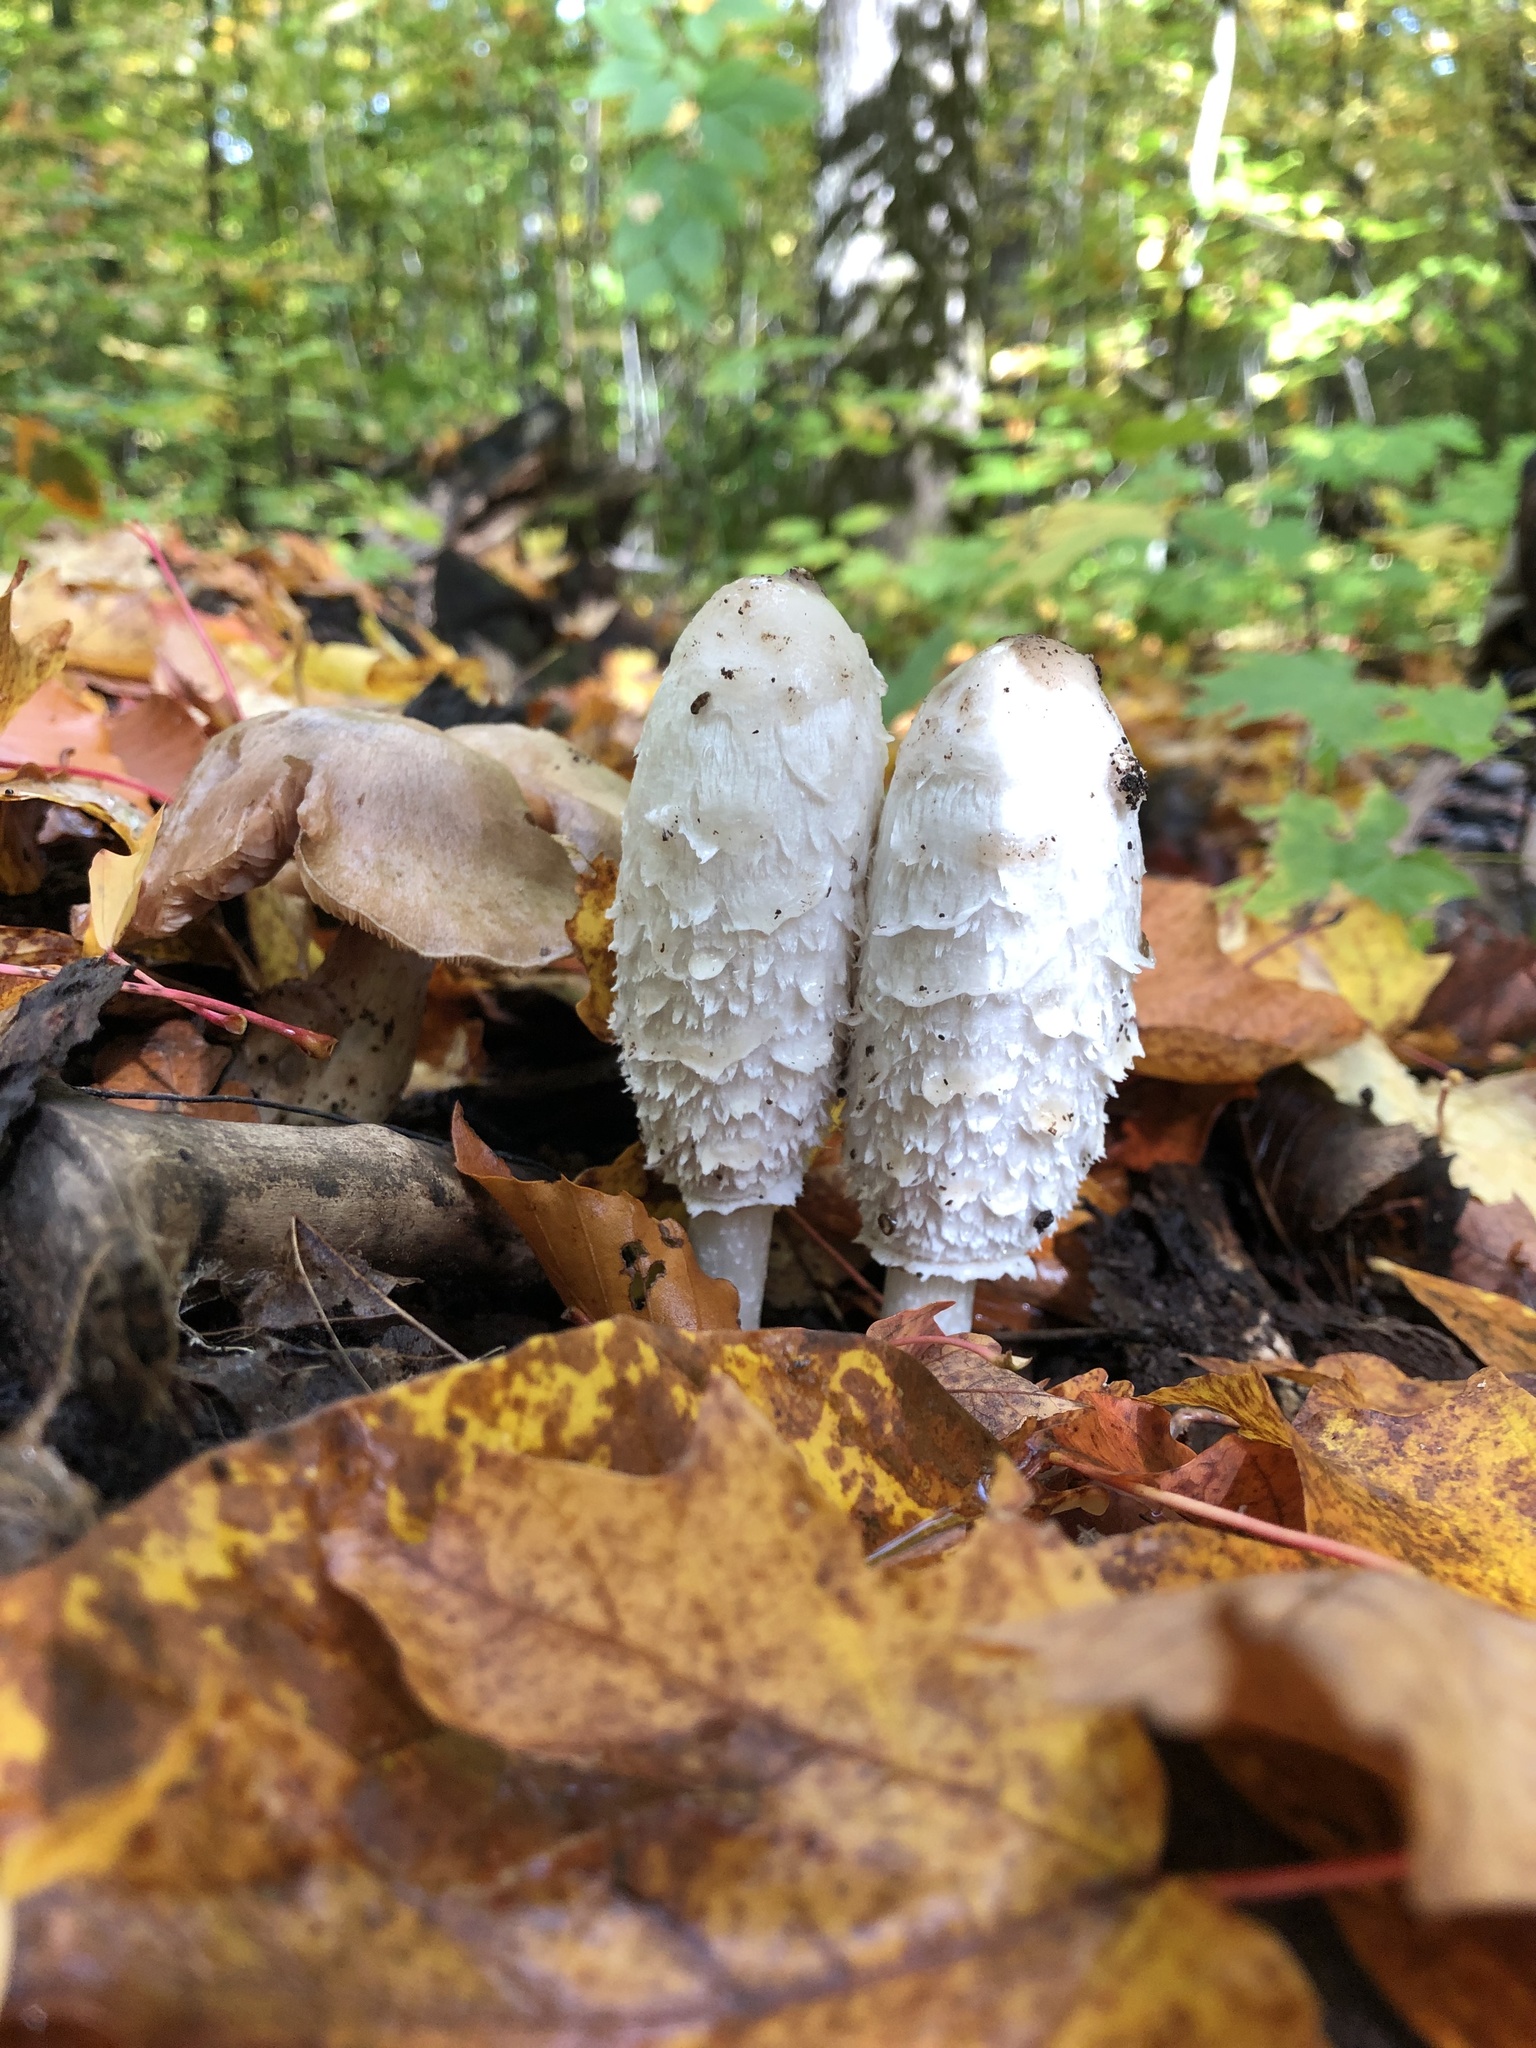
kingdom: Fungi
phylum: Basidiomycota
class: Agaricomycetes
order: Agaricales
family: Agaricaceae
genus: Coprinus
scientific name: Coprinus comatus
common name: Lawyer's wig
